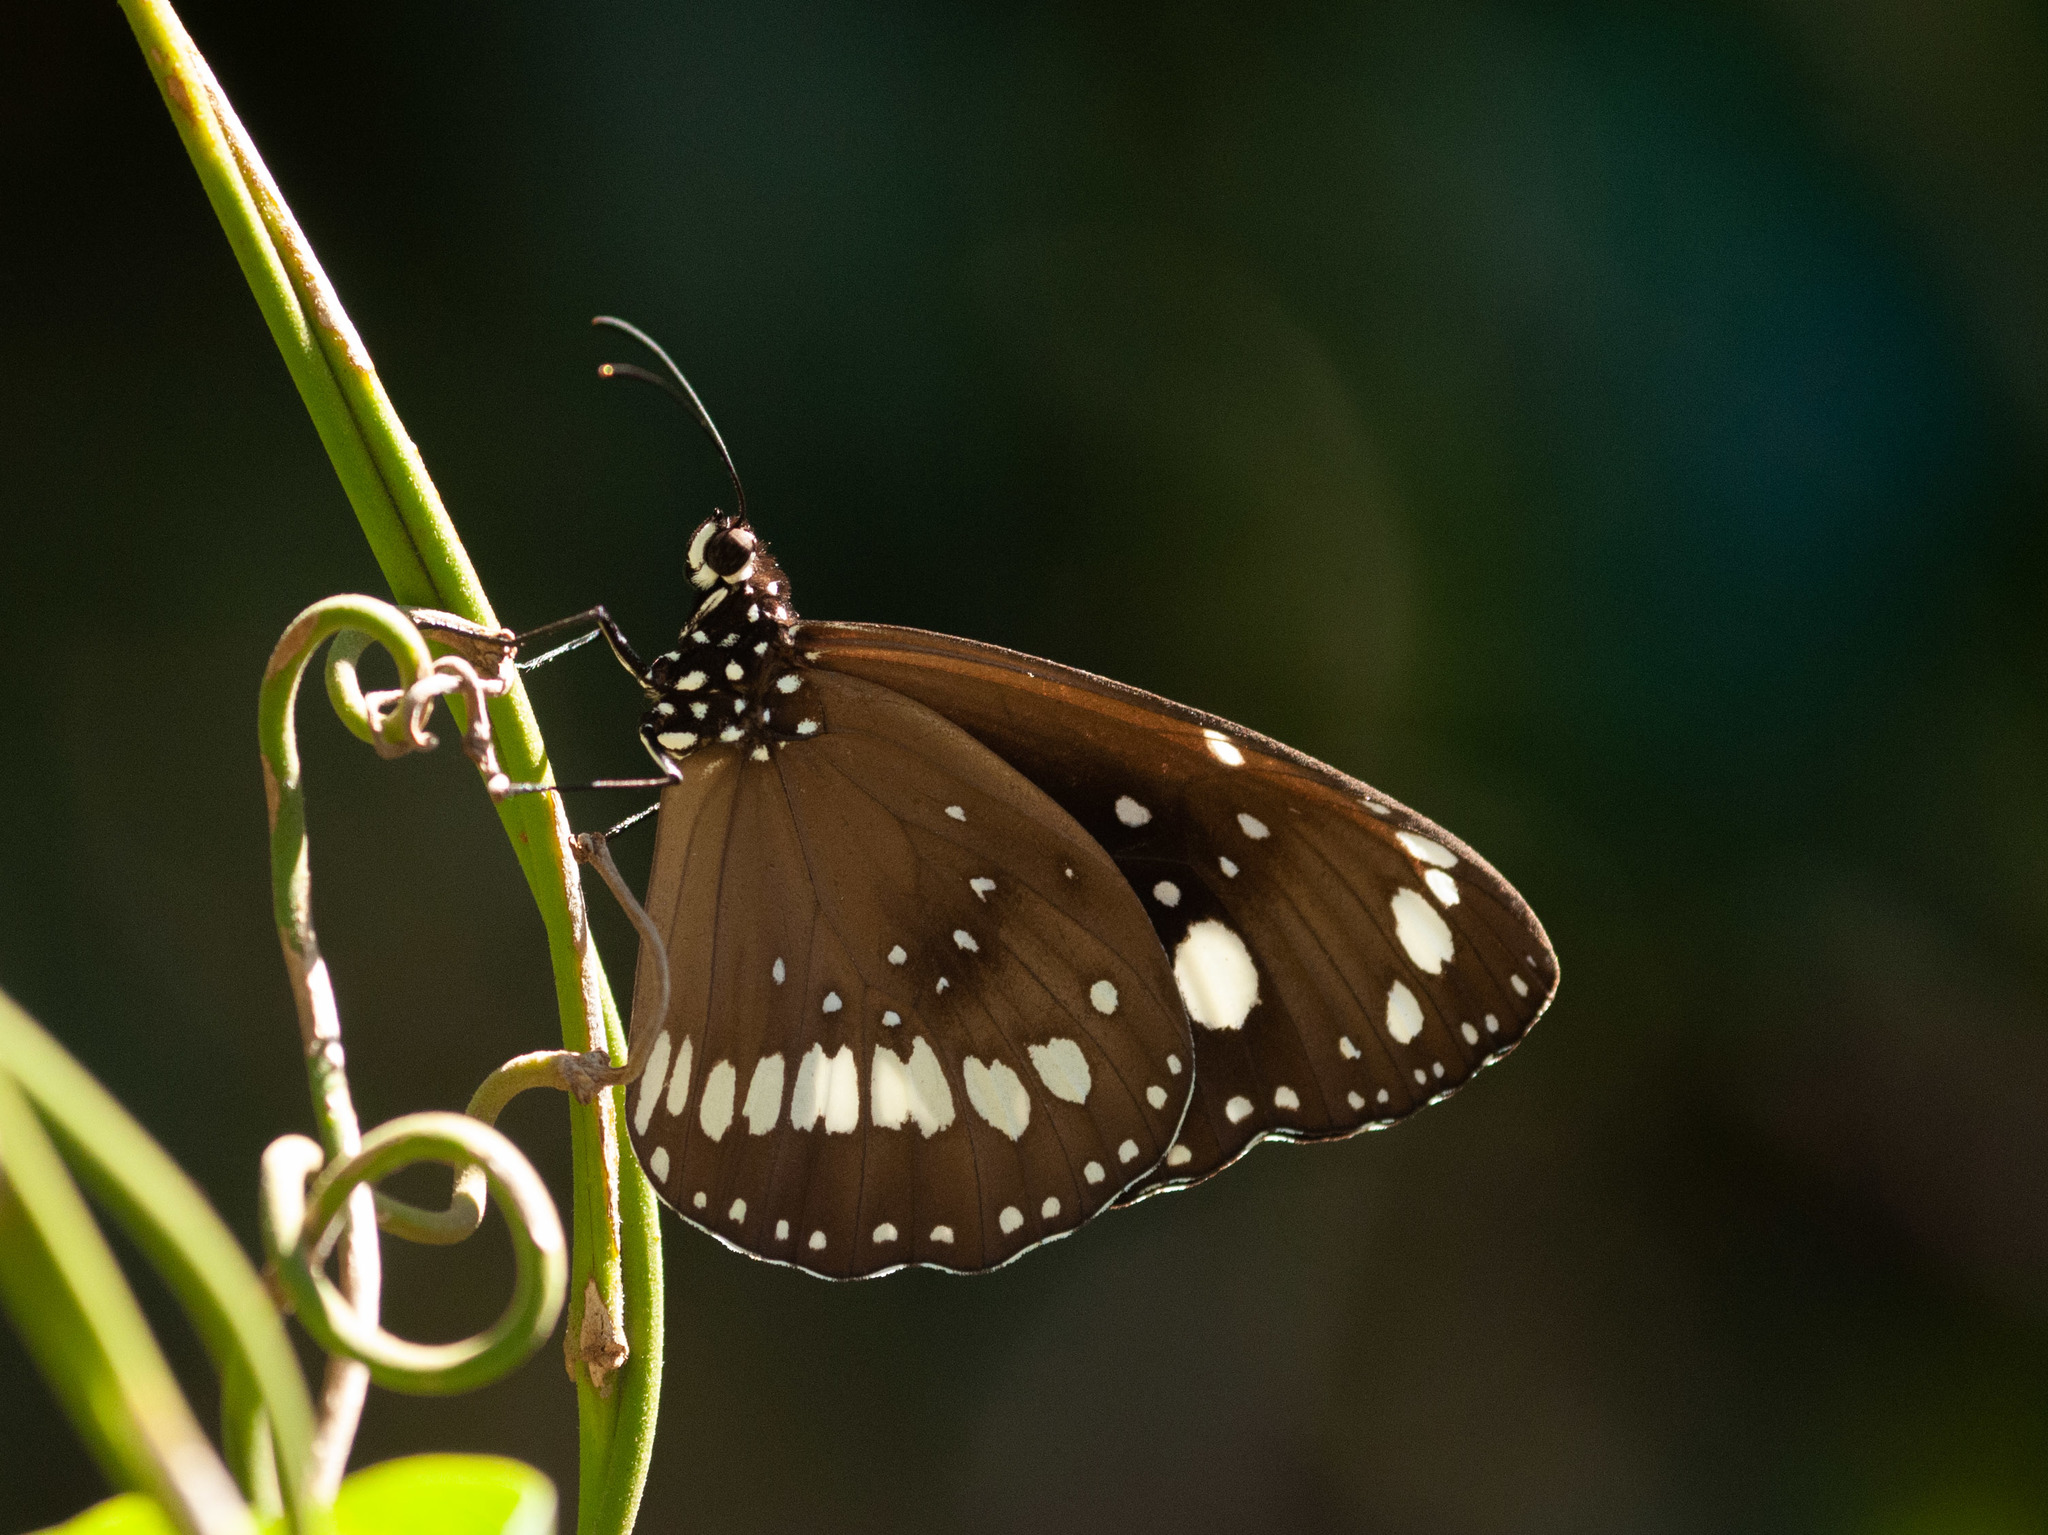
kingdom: Animalia
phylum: Arthropoda
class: Insecta
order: Lepidoptera
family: Nymphalidae
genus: Euploea
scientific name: Euploea core
